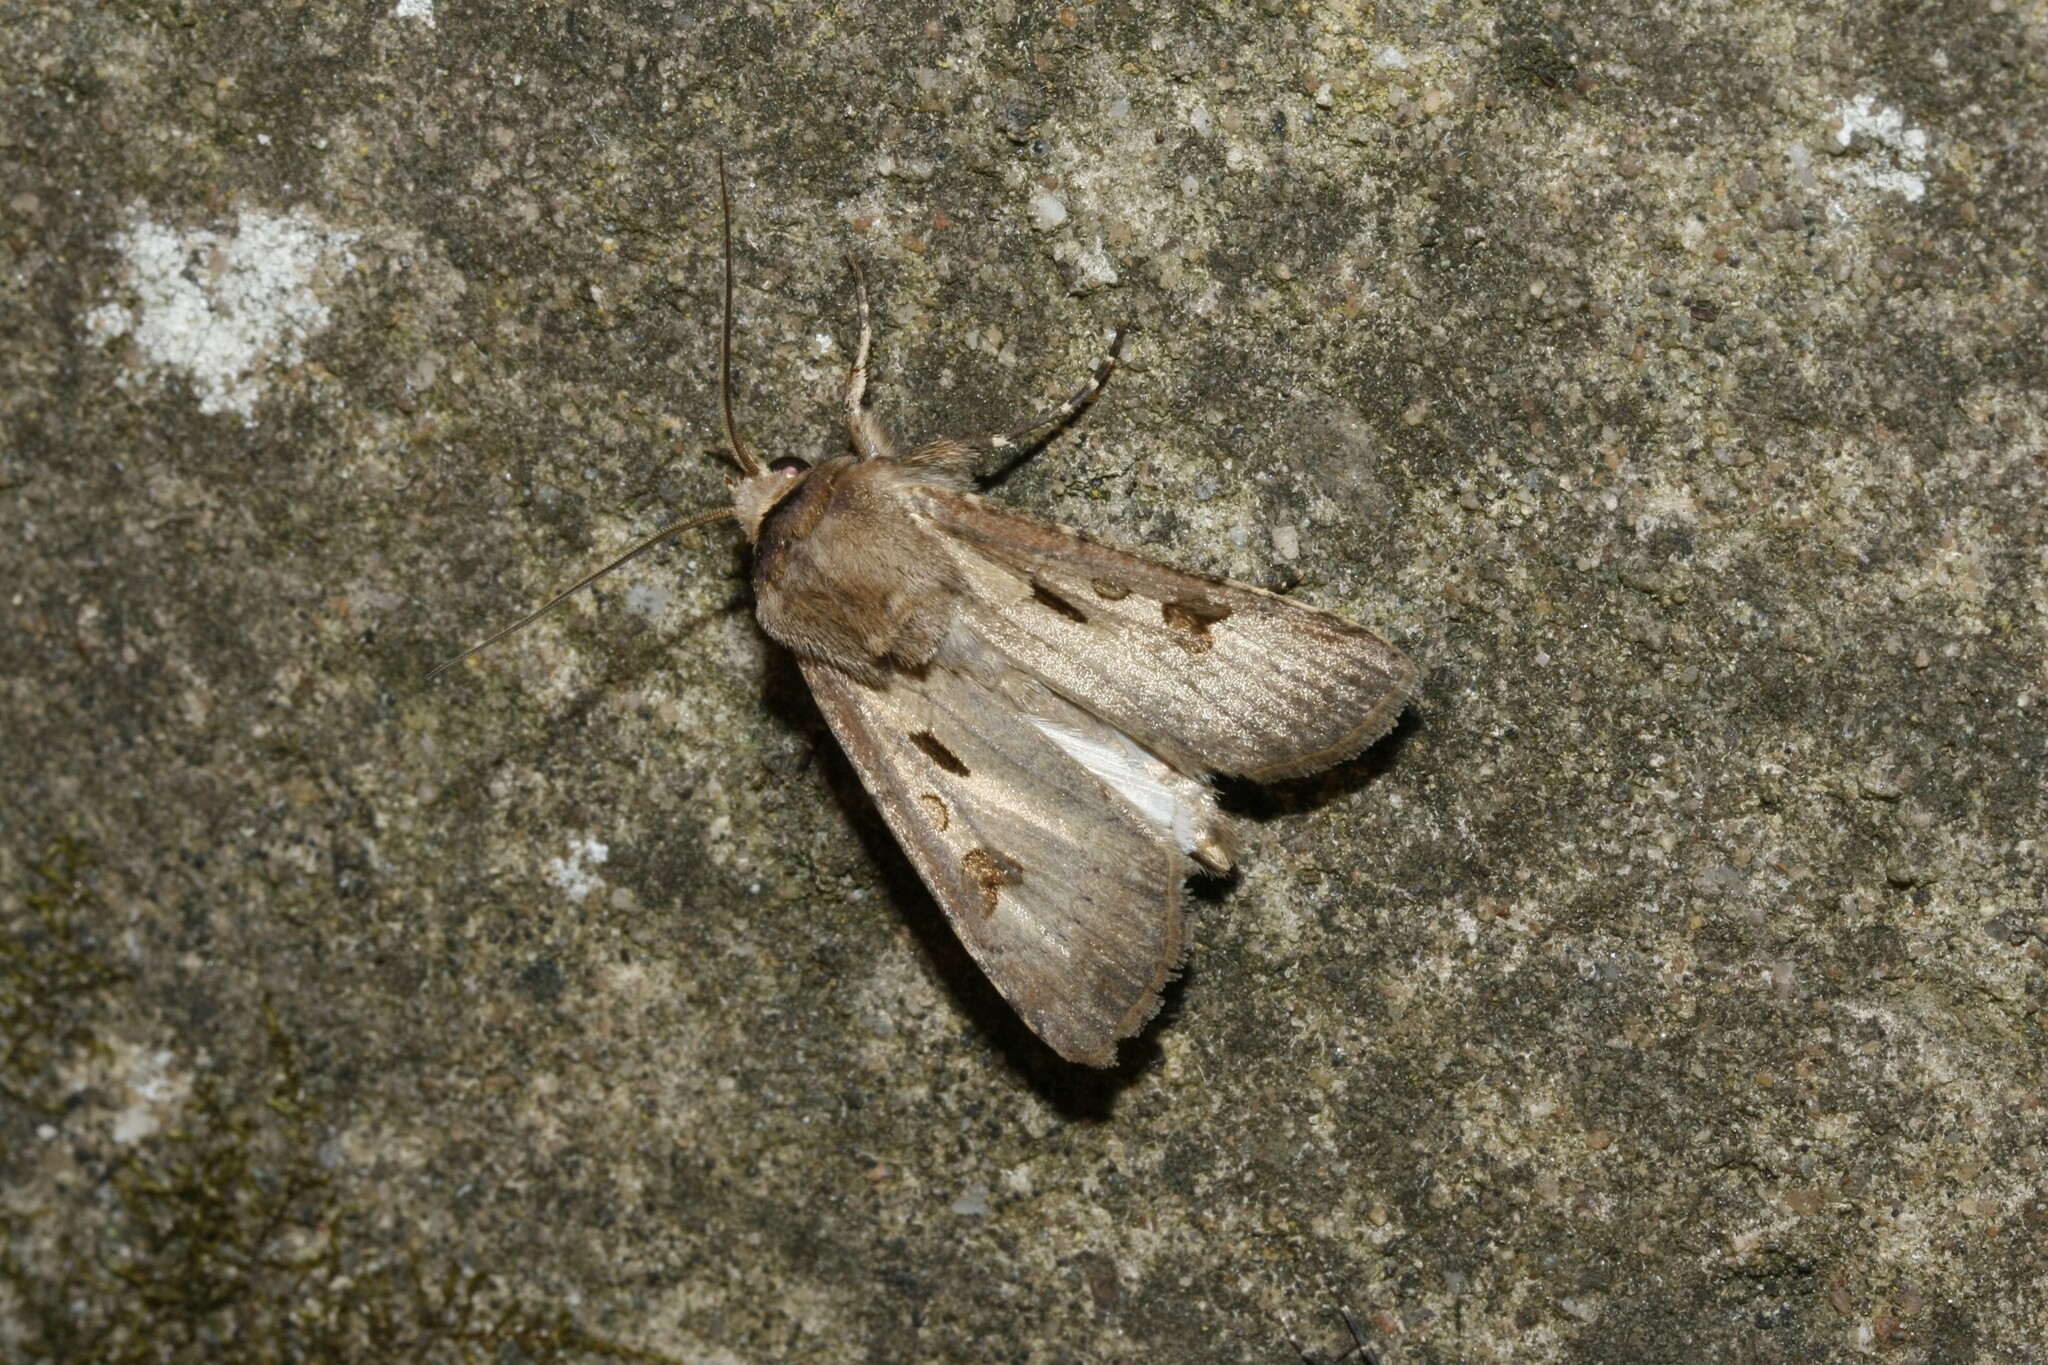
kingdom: Animalia
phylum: Arthropoda
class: Insecta
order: Lepidoptera
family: Noctuidae
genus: Agrotis
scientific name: Agrotis exclamationis
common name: Heart and dart
